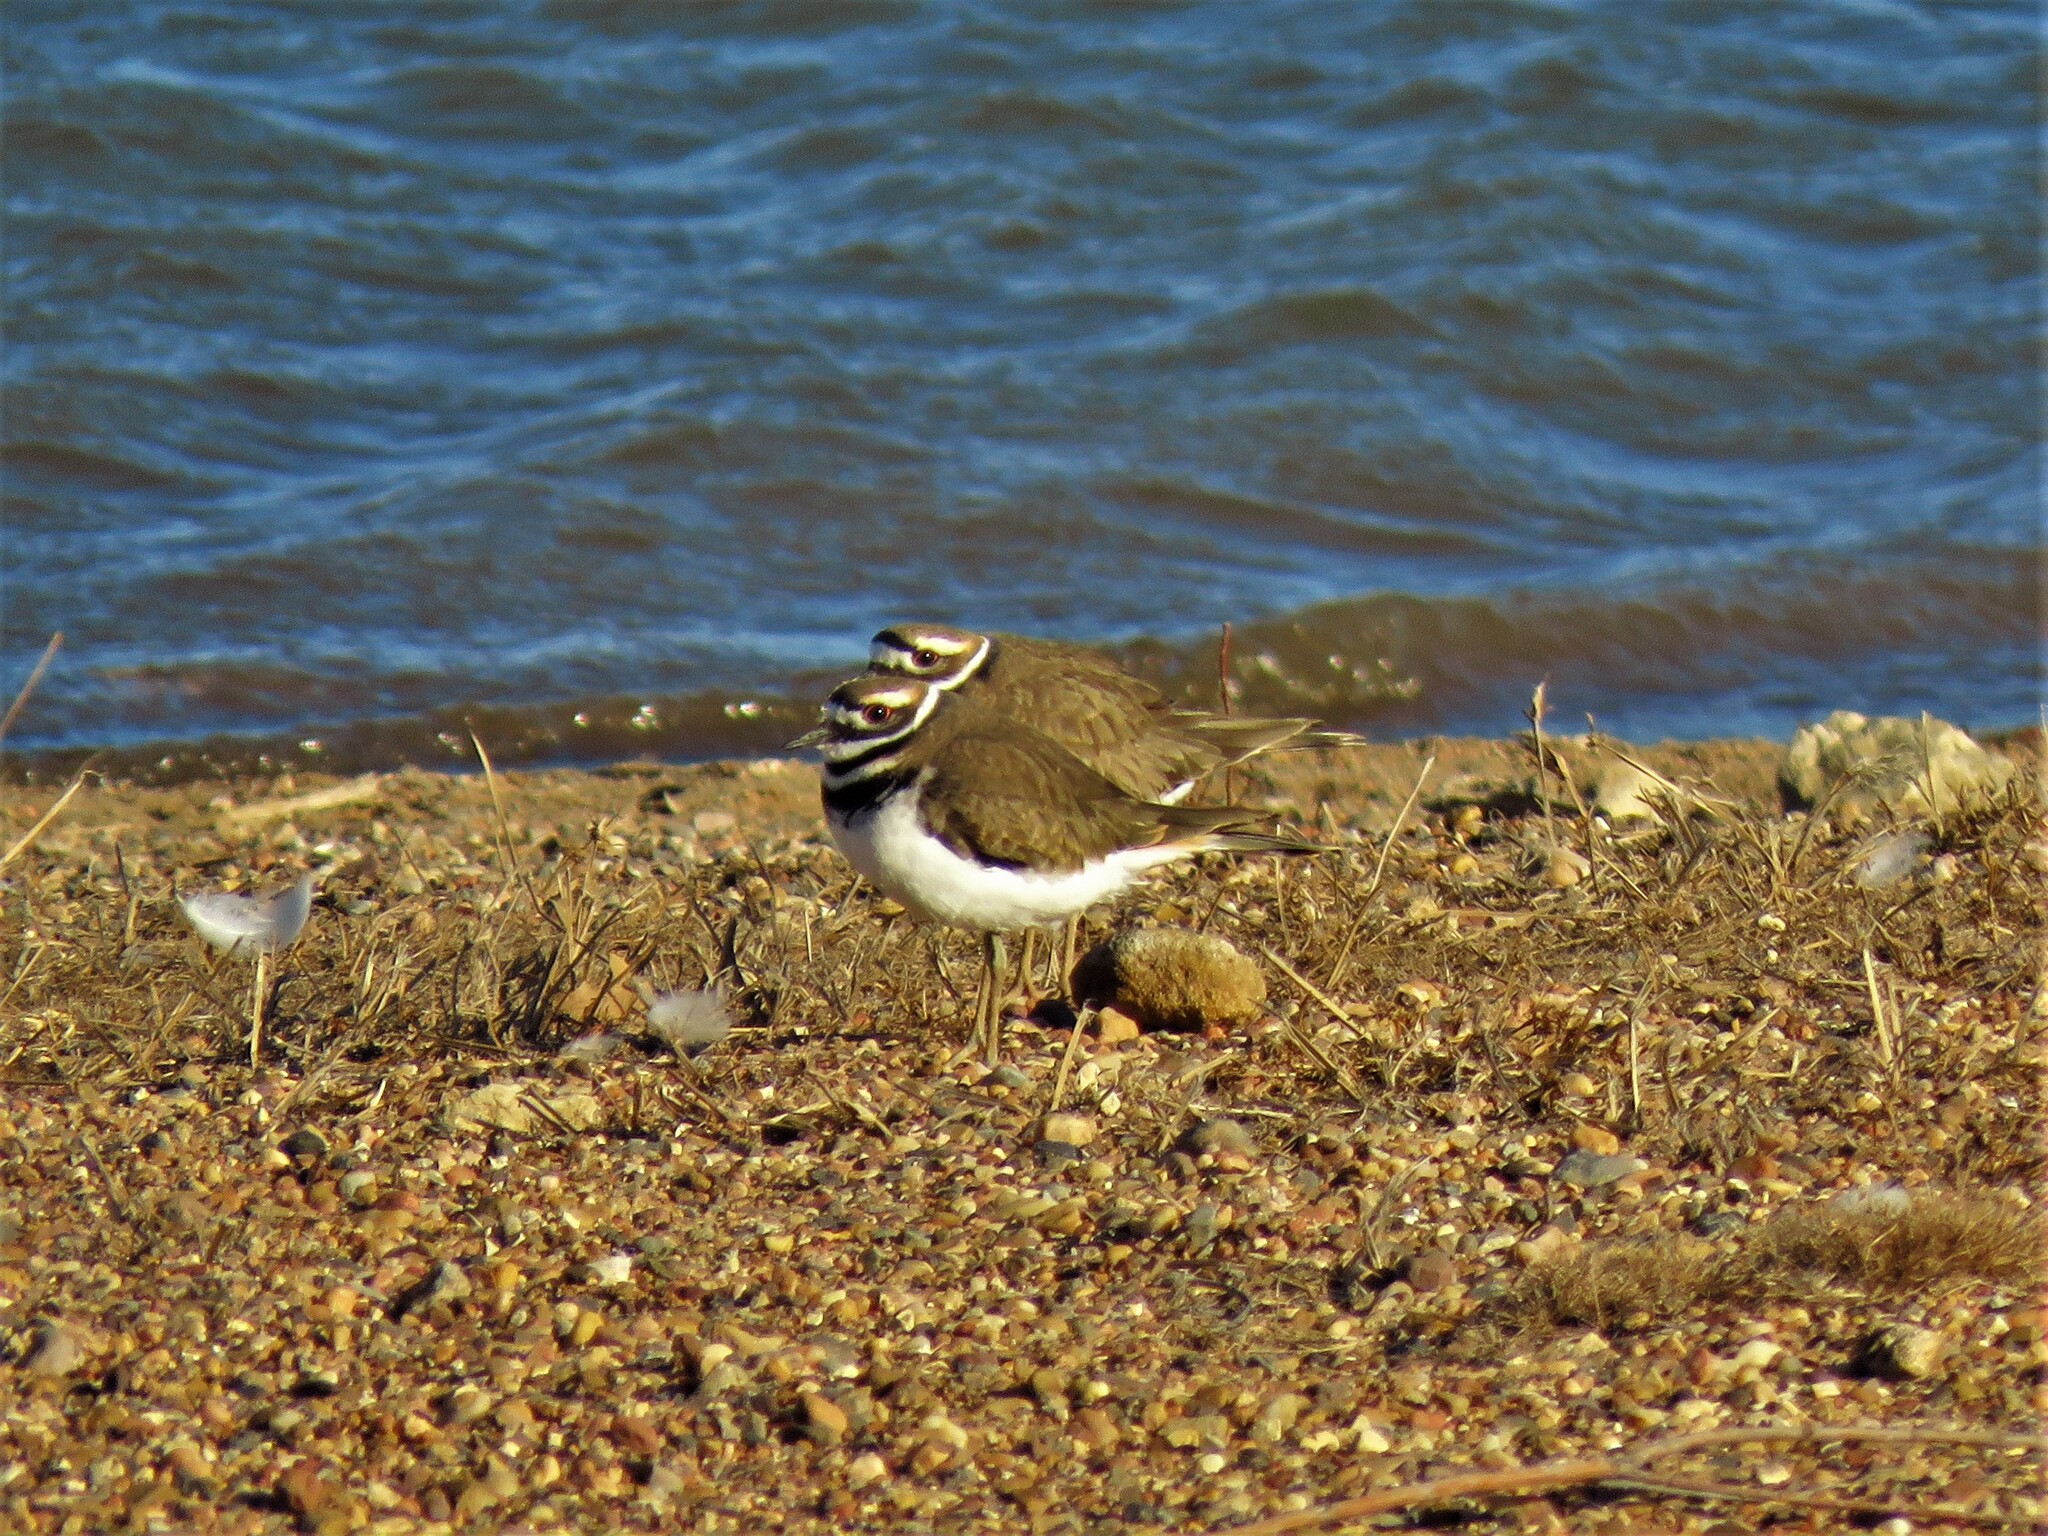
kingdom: Animalia
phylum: Chordata
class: Aves
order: Charadriiformes
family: Charadriidae
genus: Charadrius
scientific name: Charadrius vociferus
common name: Killdeer
